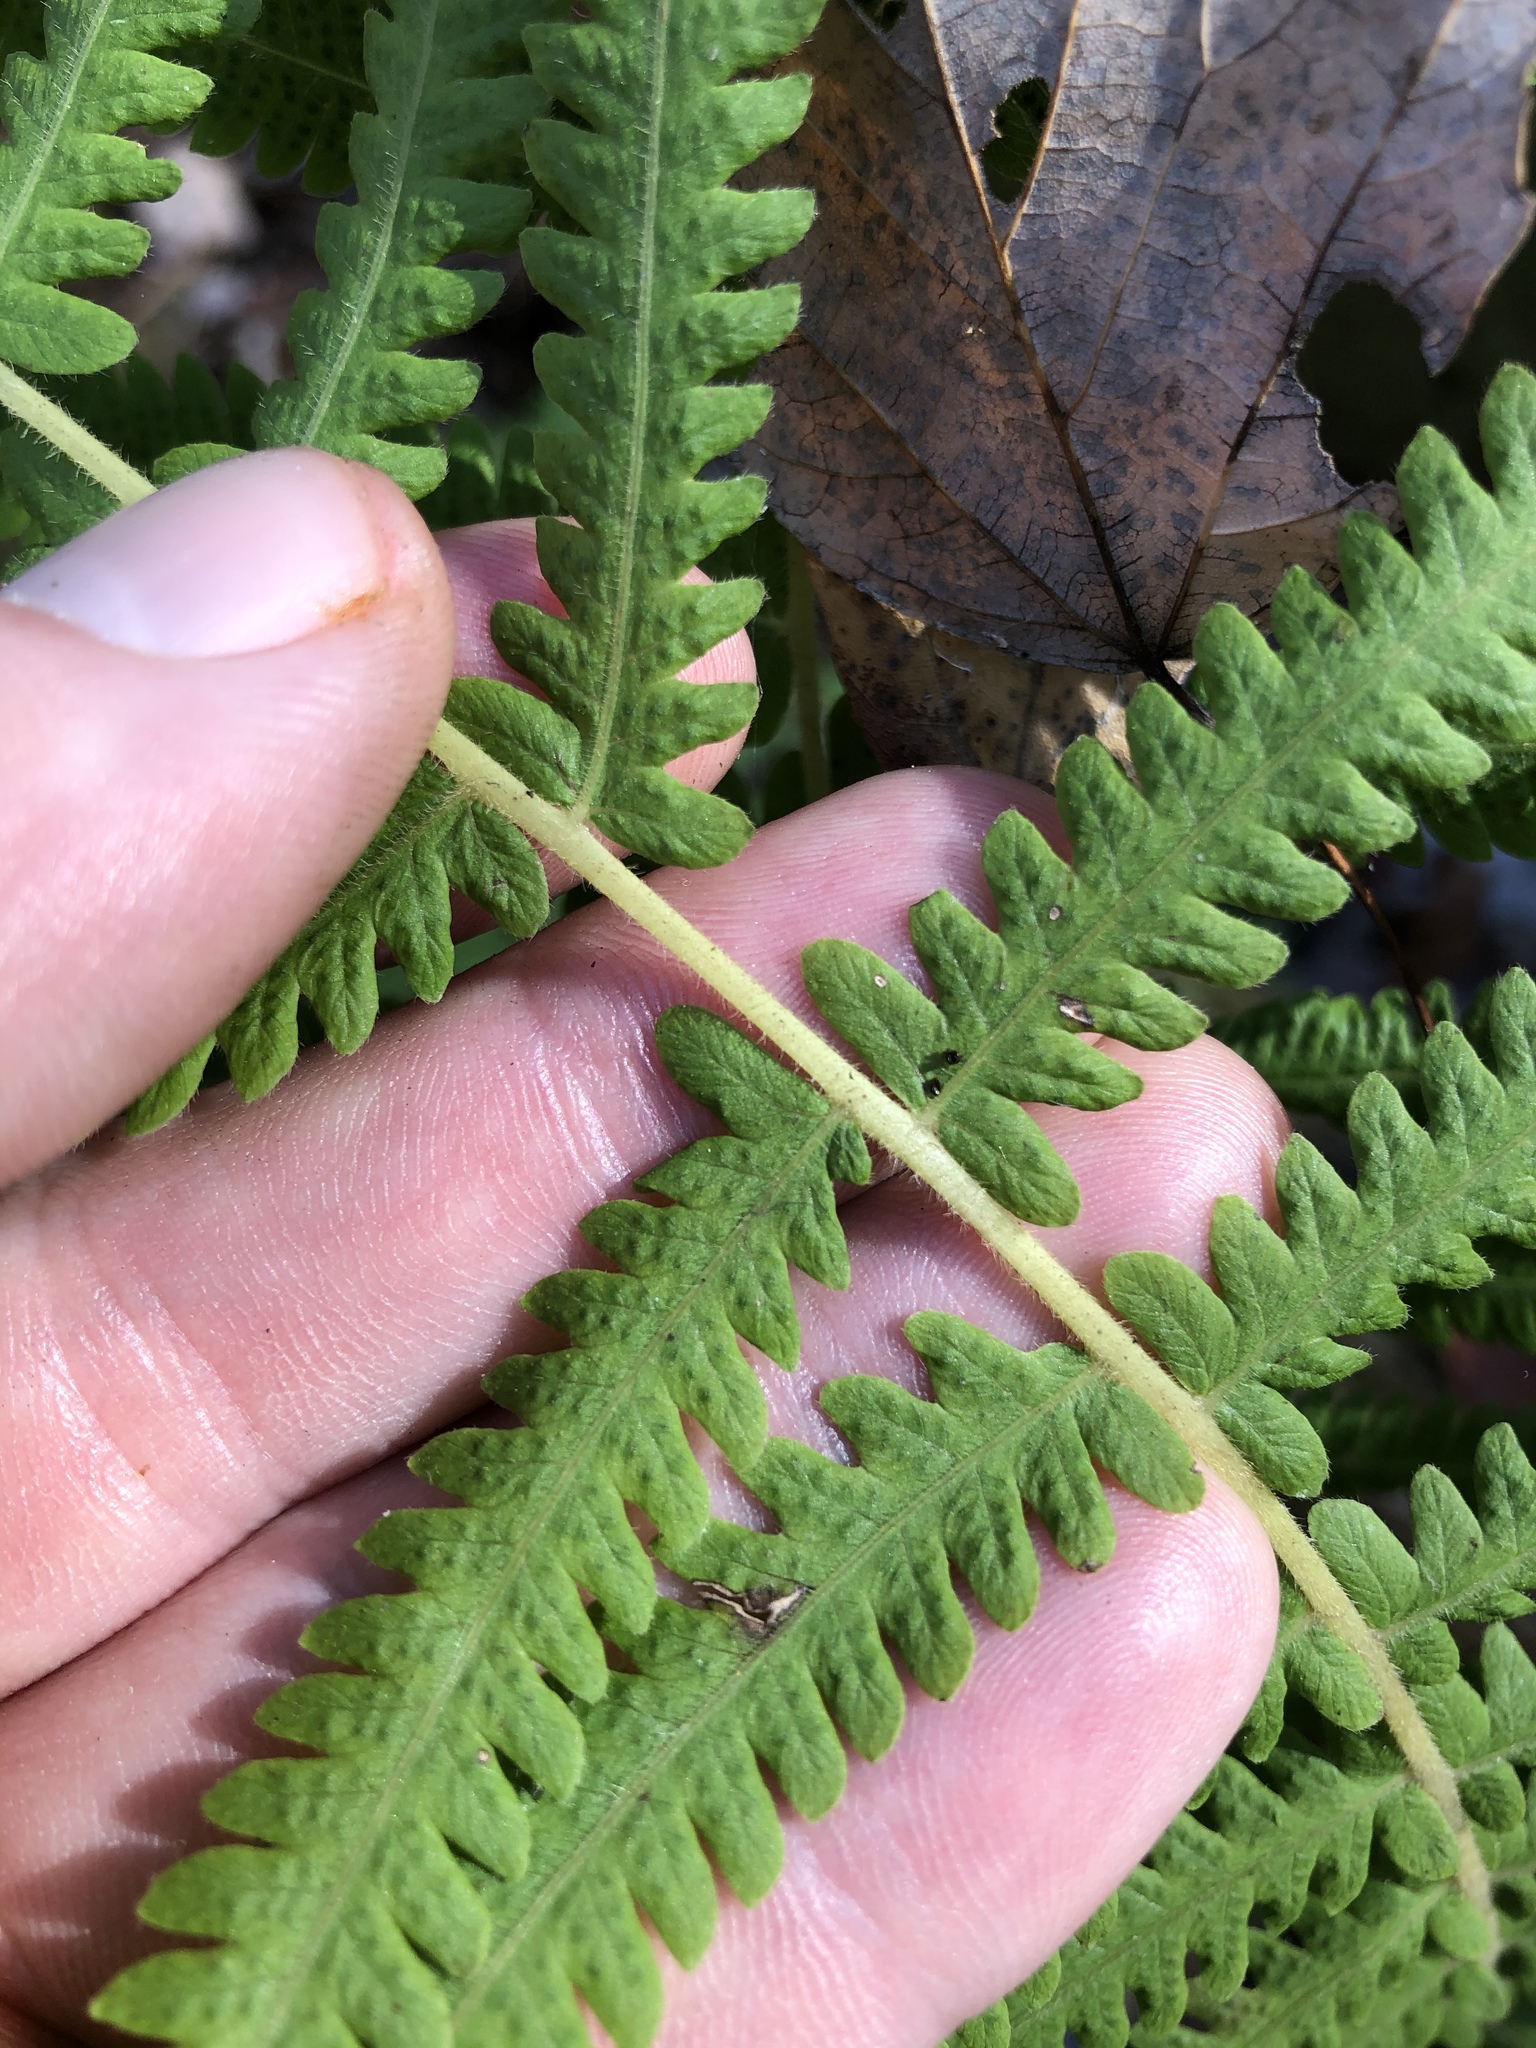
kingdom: Plantae
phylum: Tracheophyta
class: Polypodiopsida
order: Polypodiales
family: Thelypteridaceae
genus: Pelazoneuron
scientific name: Pelazoneuron kunthii
